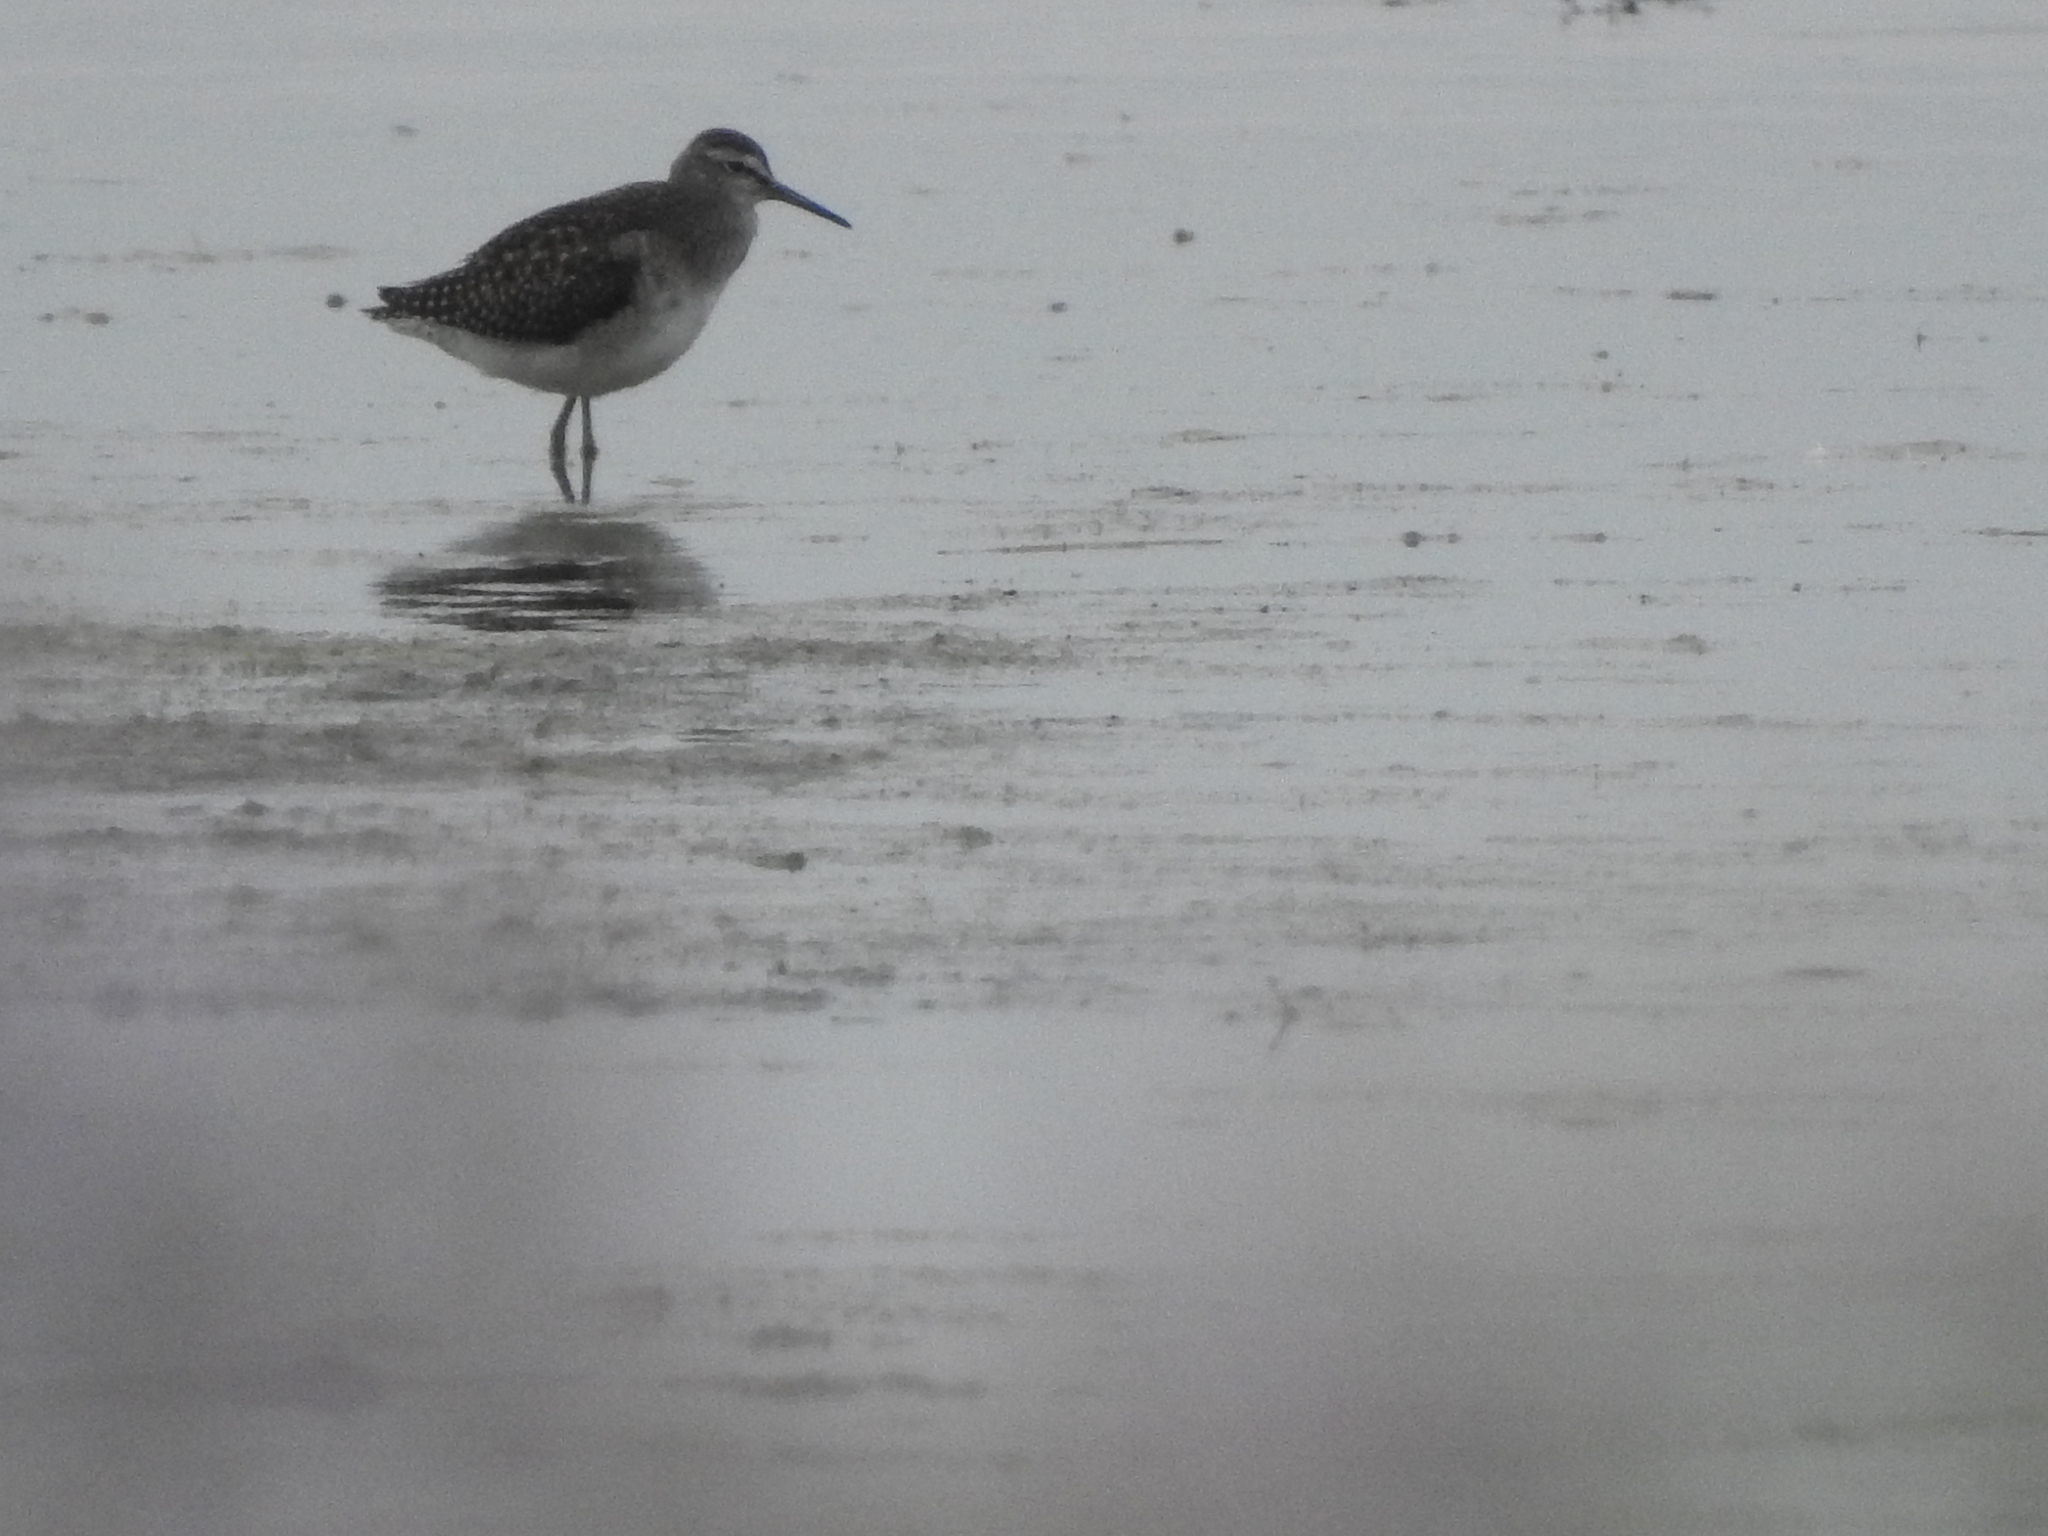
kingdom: Animalia
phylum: Chordata
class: Aves
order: Charadriiformes
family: Scolopacidae
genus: Tringa
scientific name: Tringa glareola
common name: Wood sandpiper
